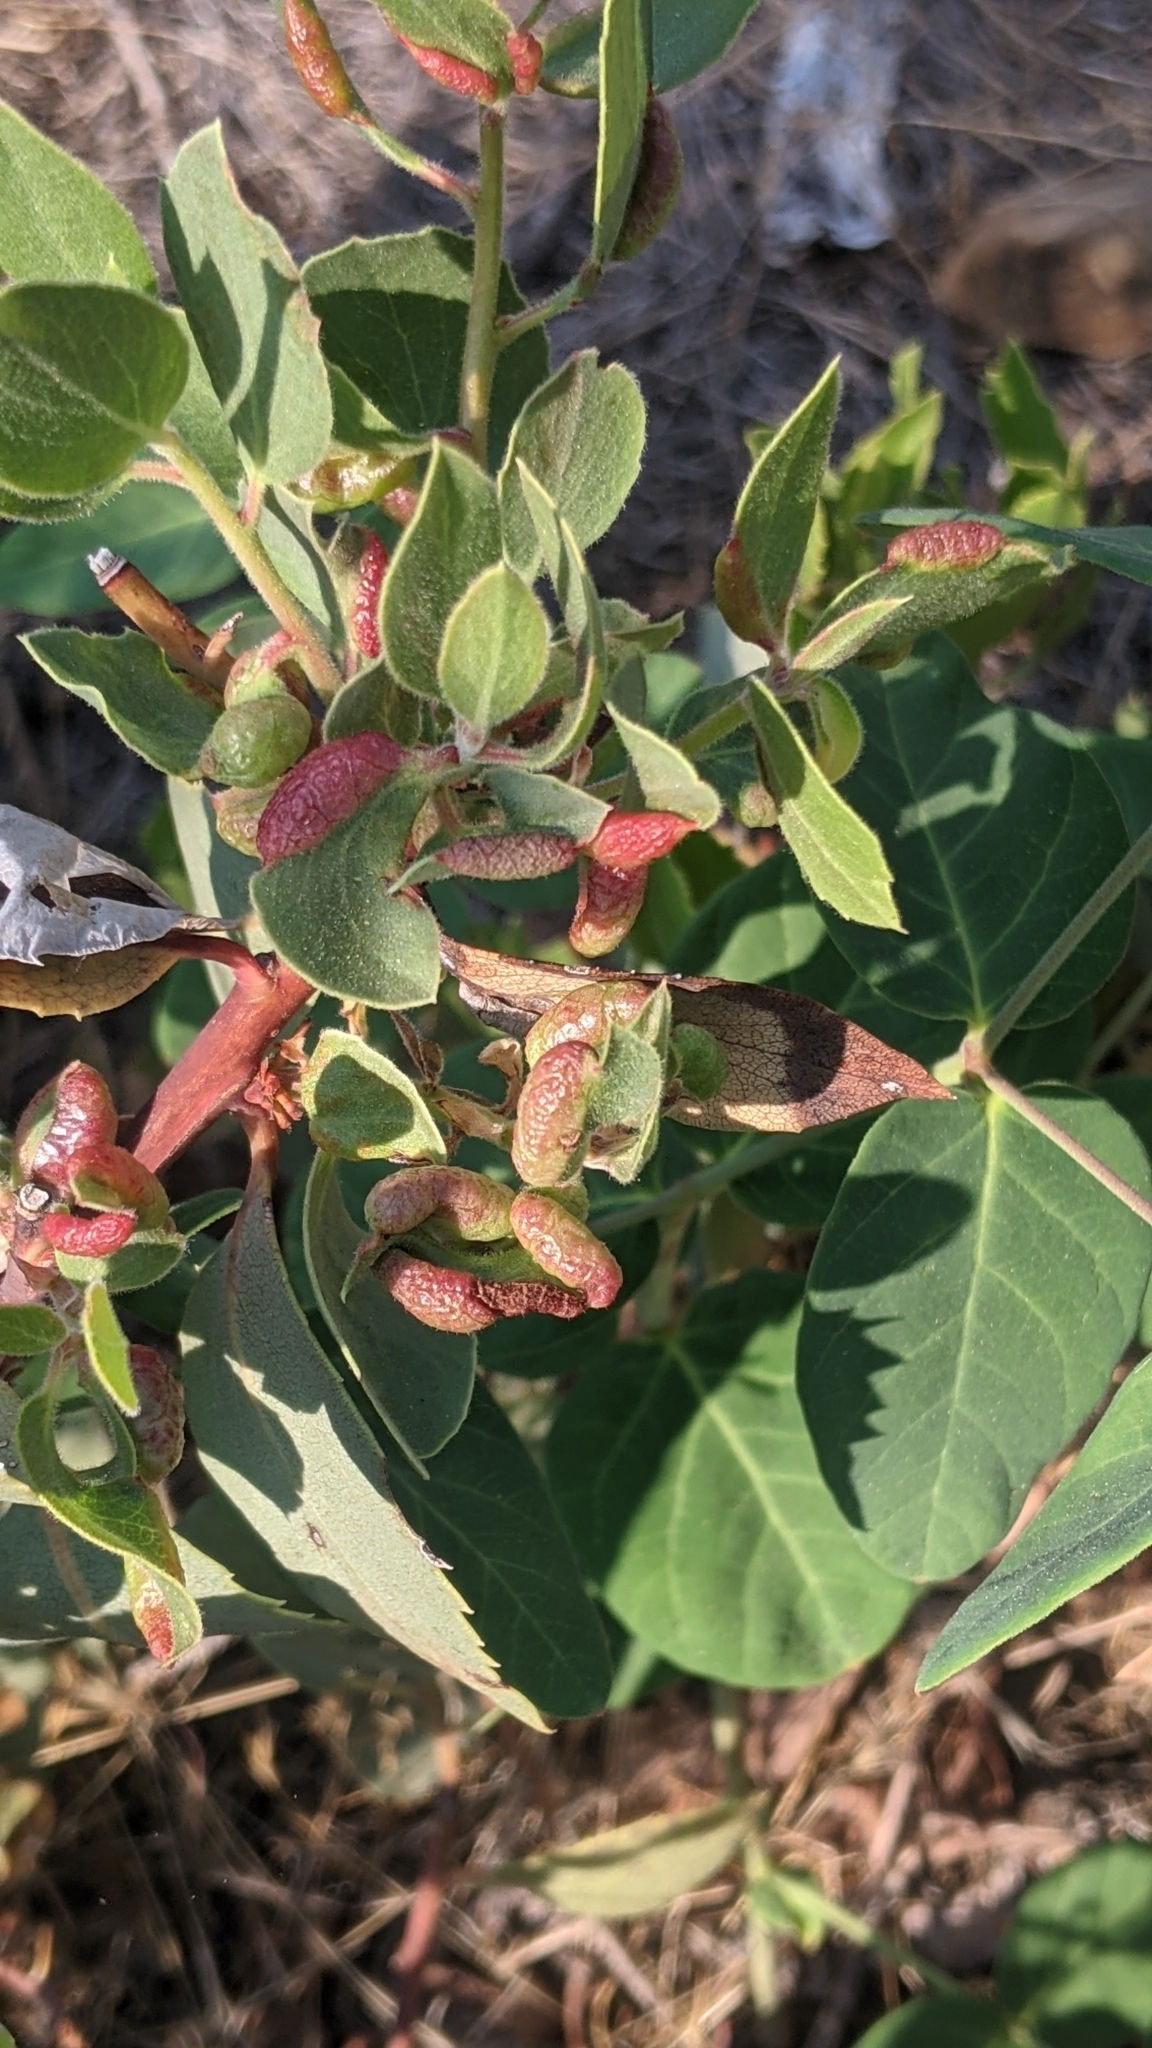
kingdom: Animalia
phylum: Arthropoda
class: Insecta
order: Hemiptera
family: Aphididae
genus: Tamalia
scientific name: Tamalia coweni
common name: Manzanita leafgall aphid
